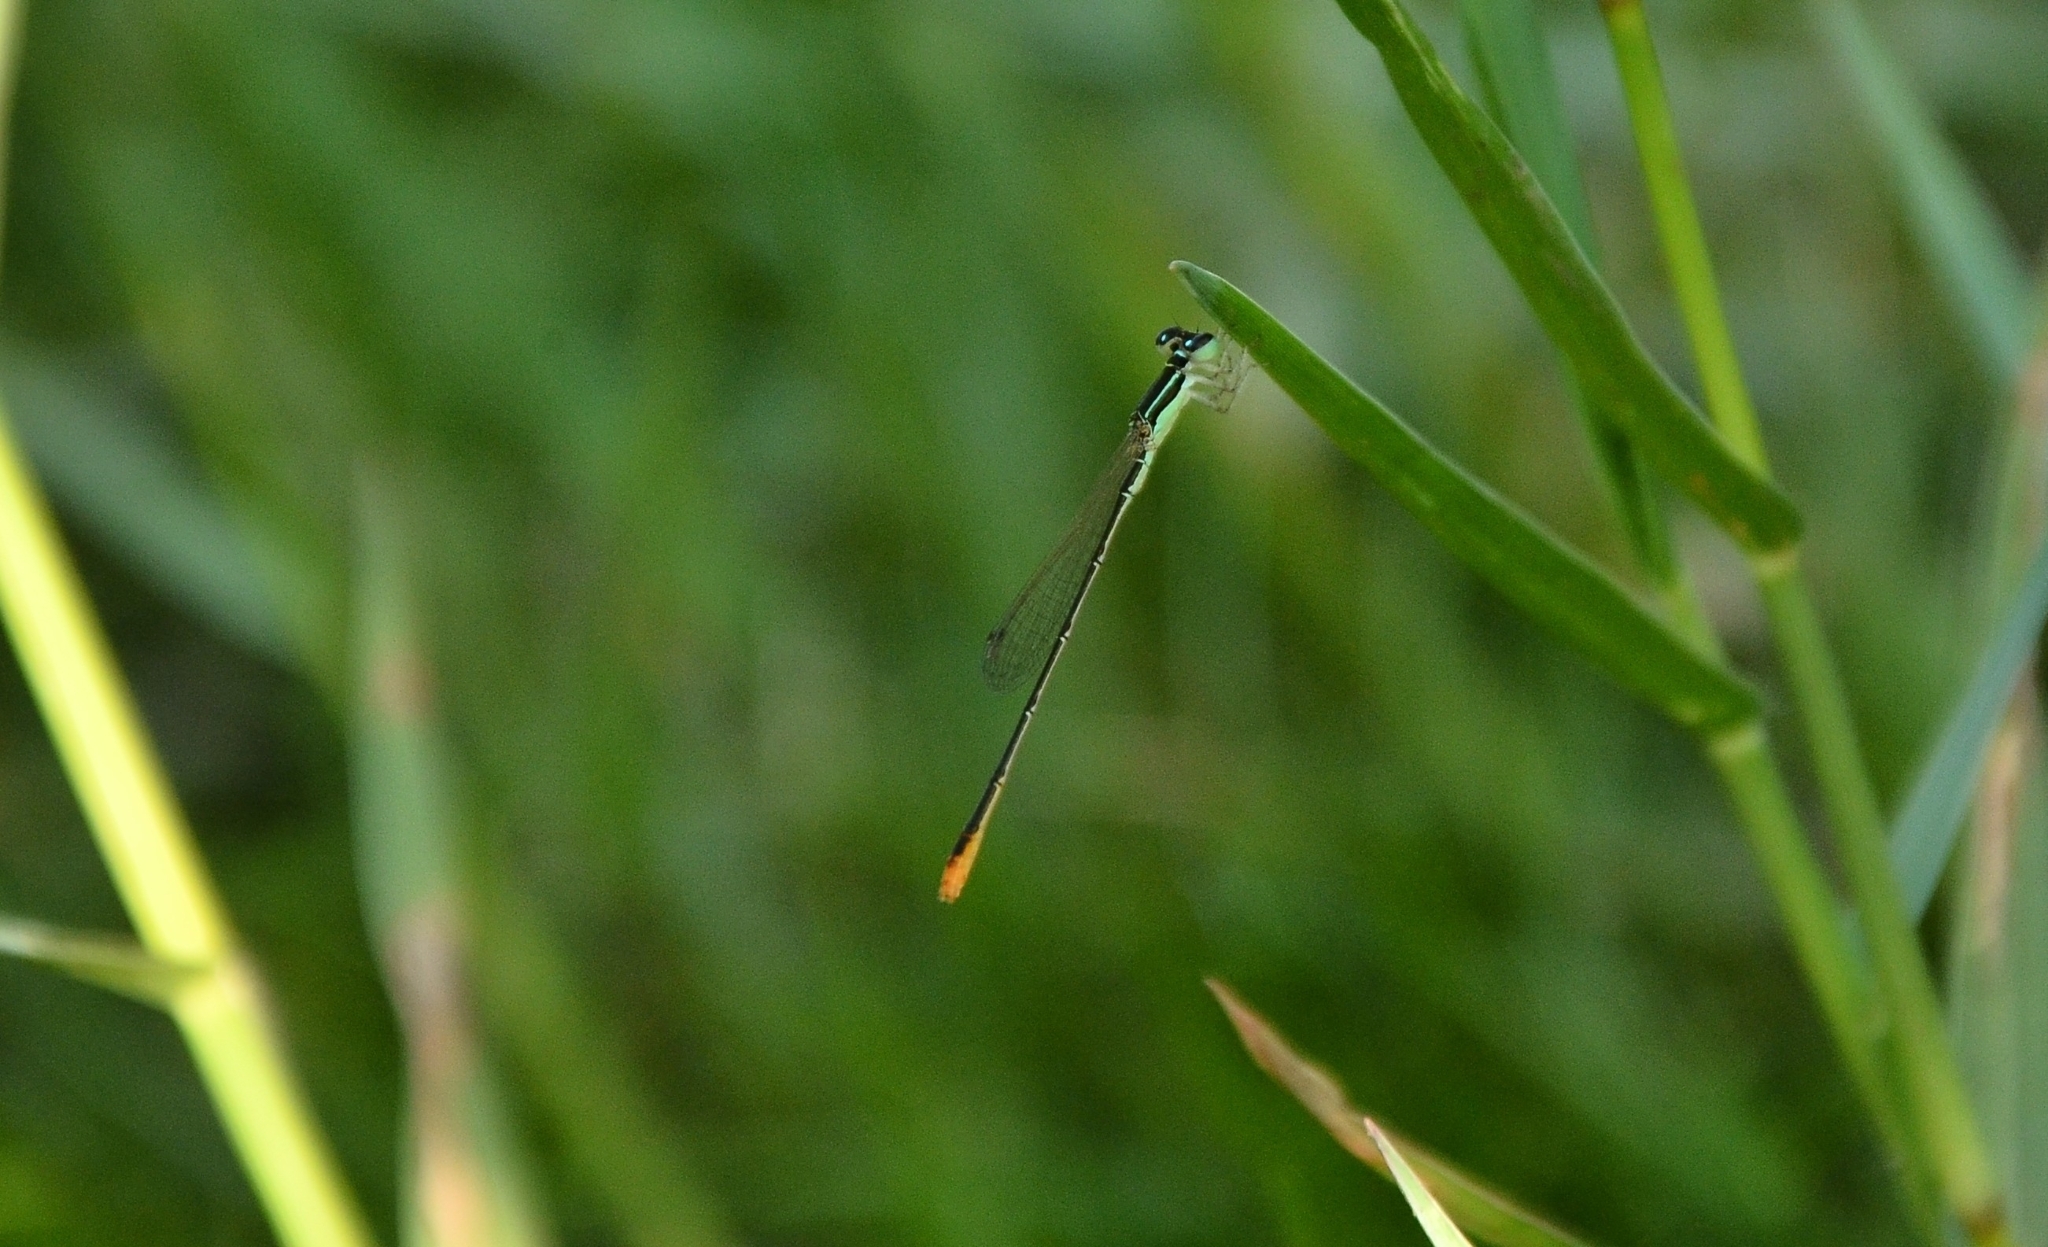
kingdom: Animalia
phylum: Arthropoda
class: Insecta
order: Odonata
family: Coenagrionidae
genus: Agriocnemis
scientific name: Agriocnemis pygmaea
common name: Pygmy wisp
